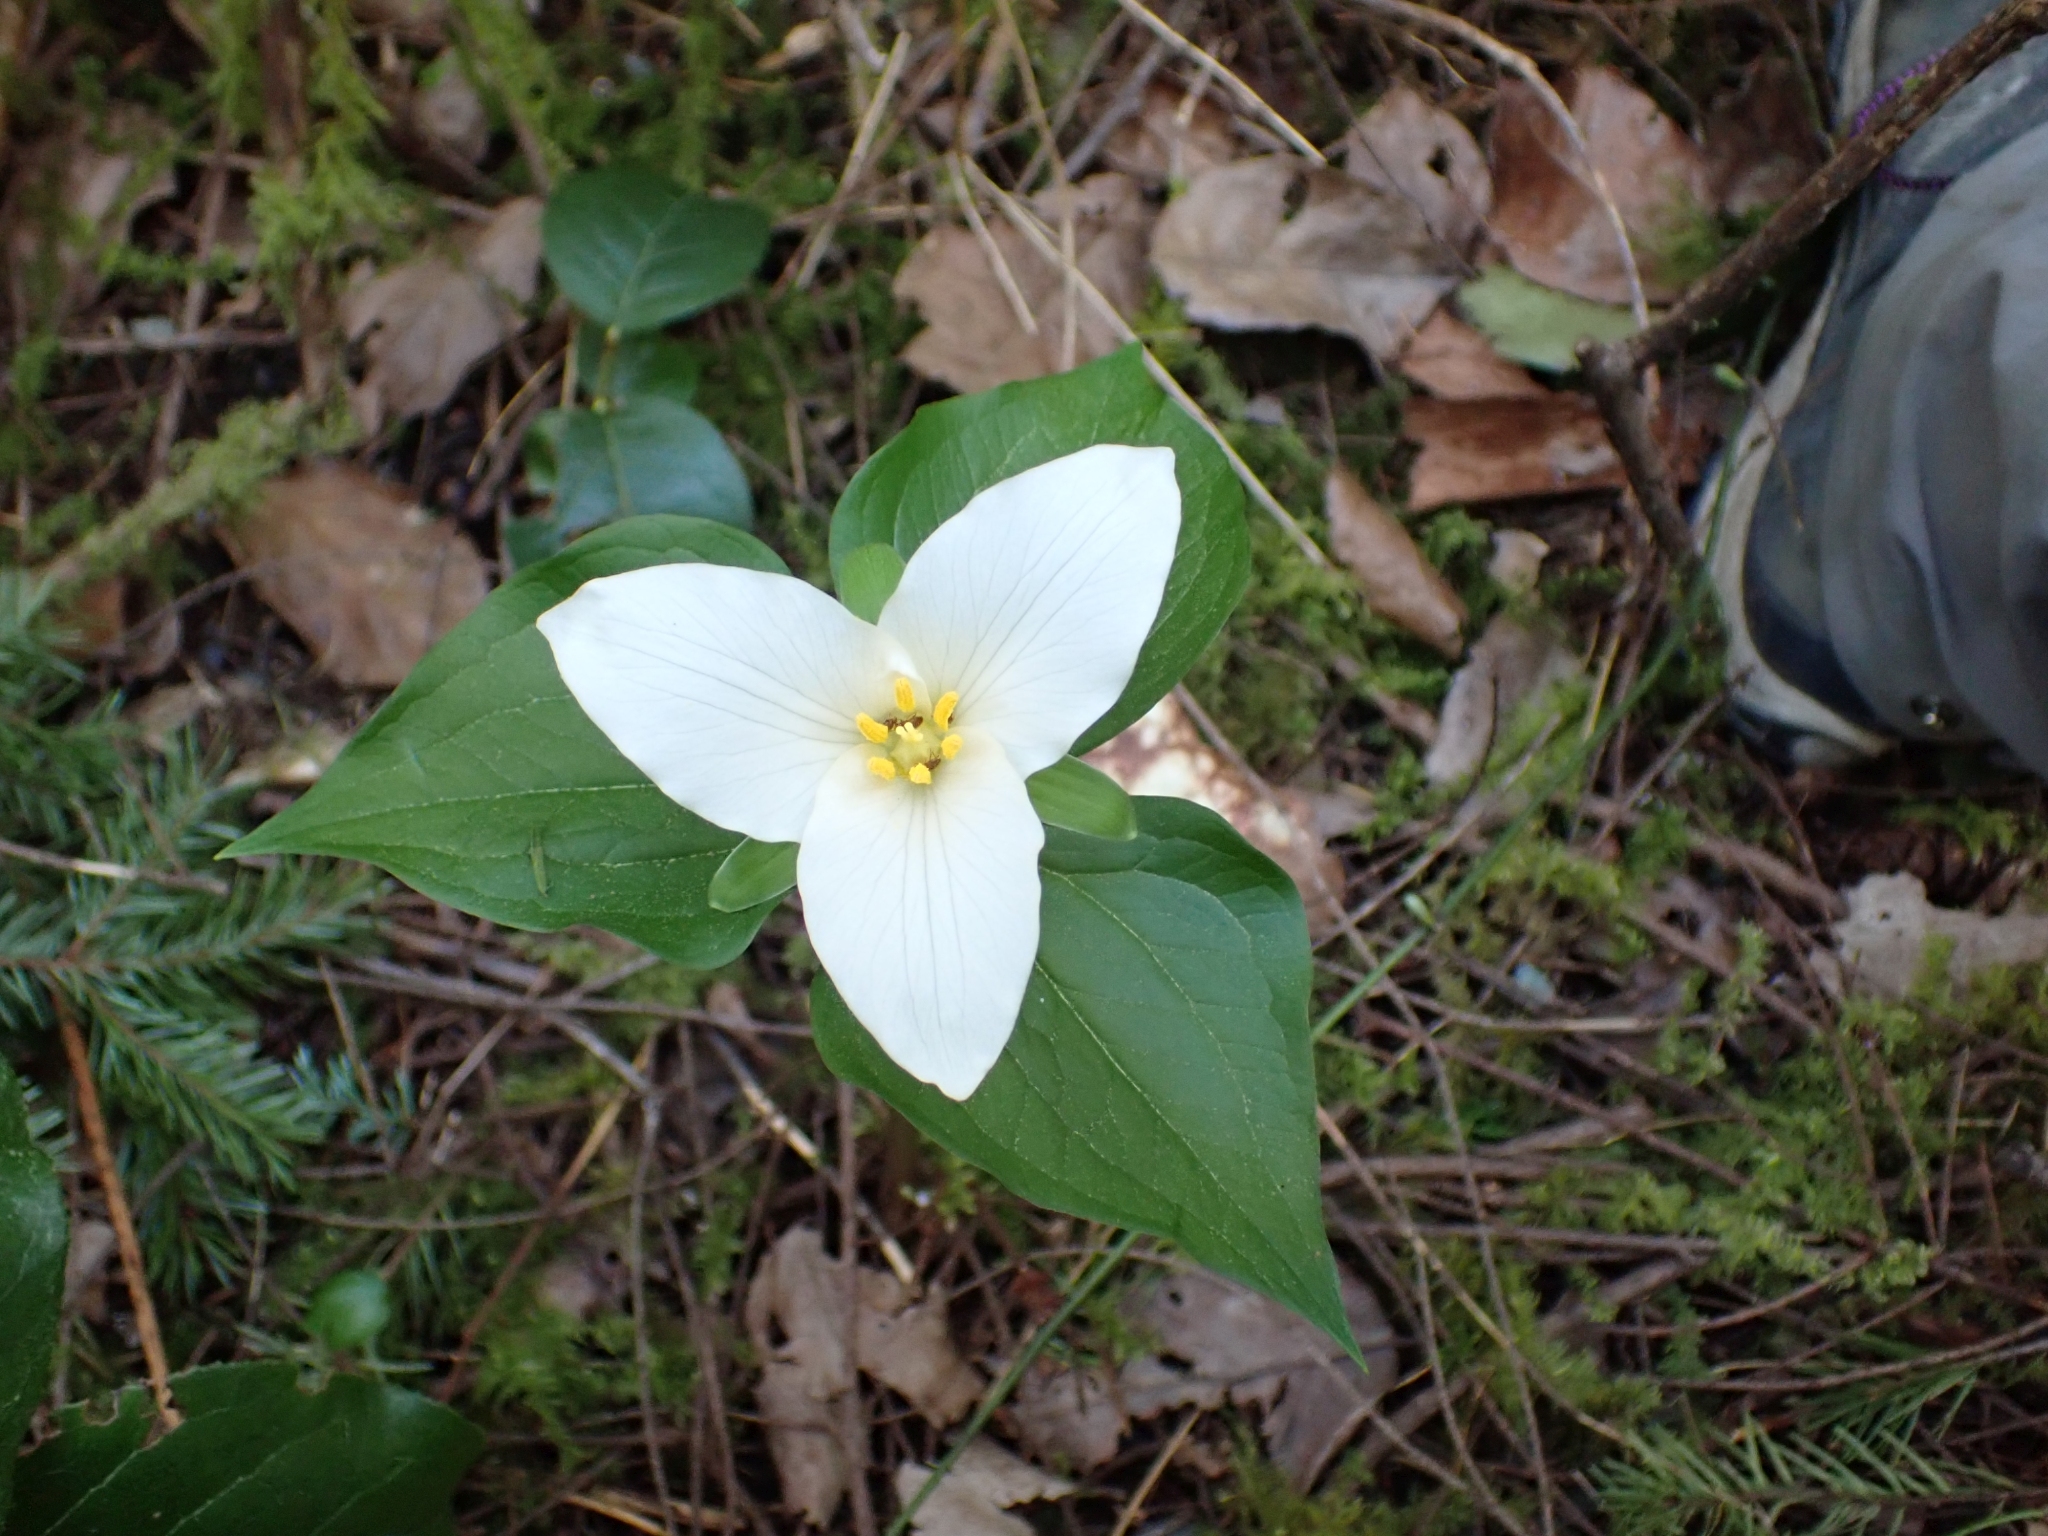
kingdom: Plantae
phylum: Tracheophyta
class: Liliopsida
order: Liliales
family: Melanthiaceae
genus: Trillium
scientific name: Trillium ovatum
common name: Pacific trillium
